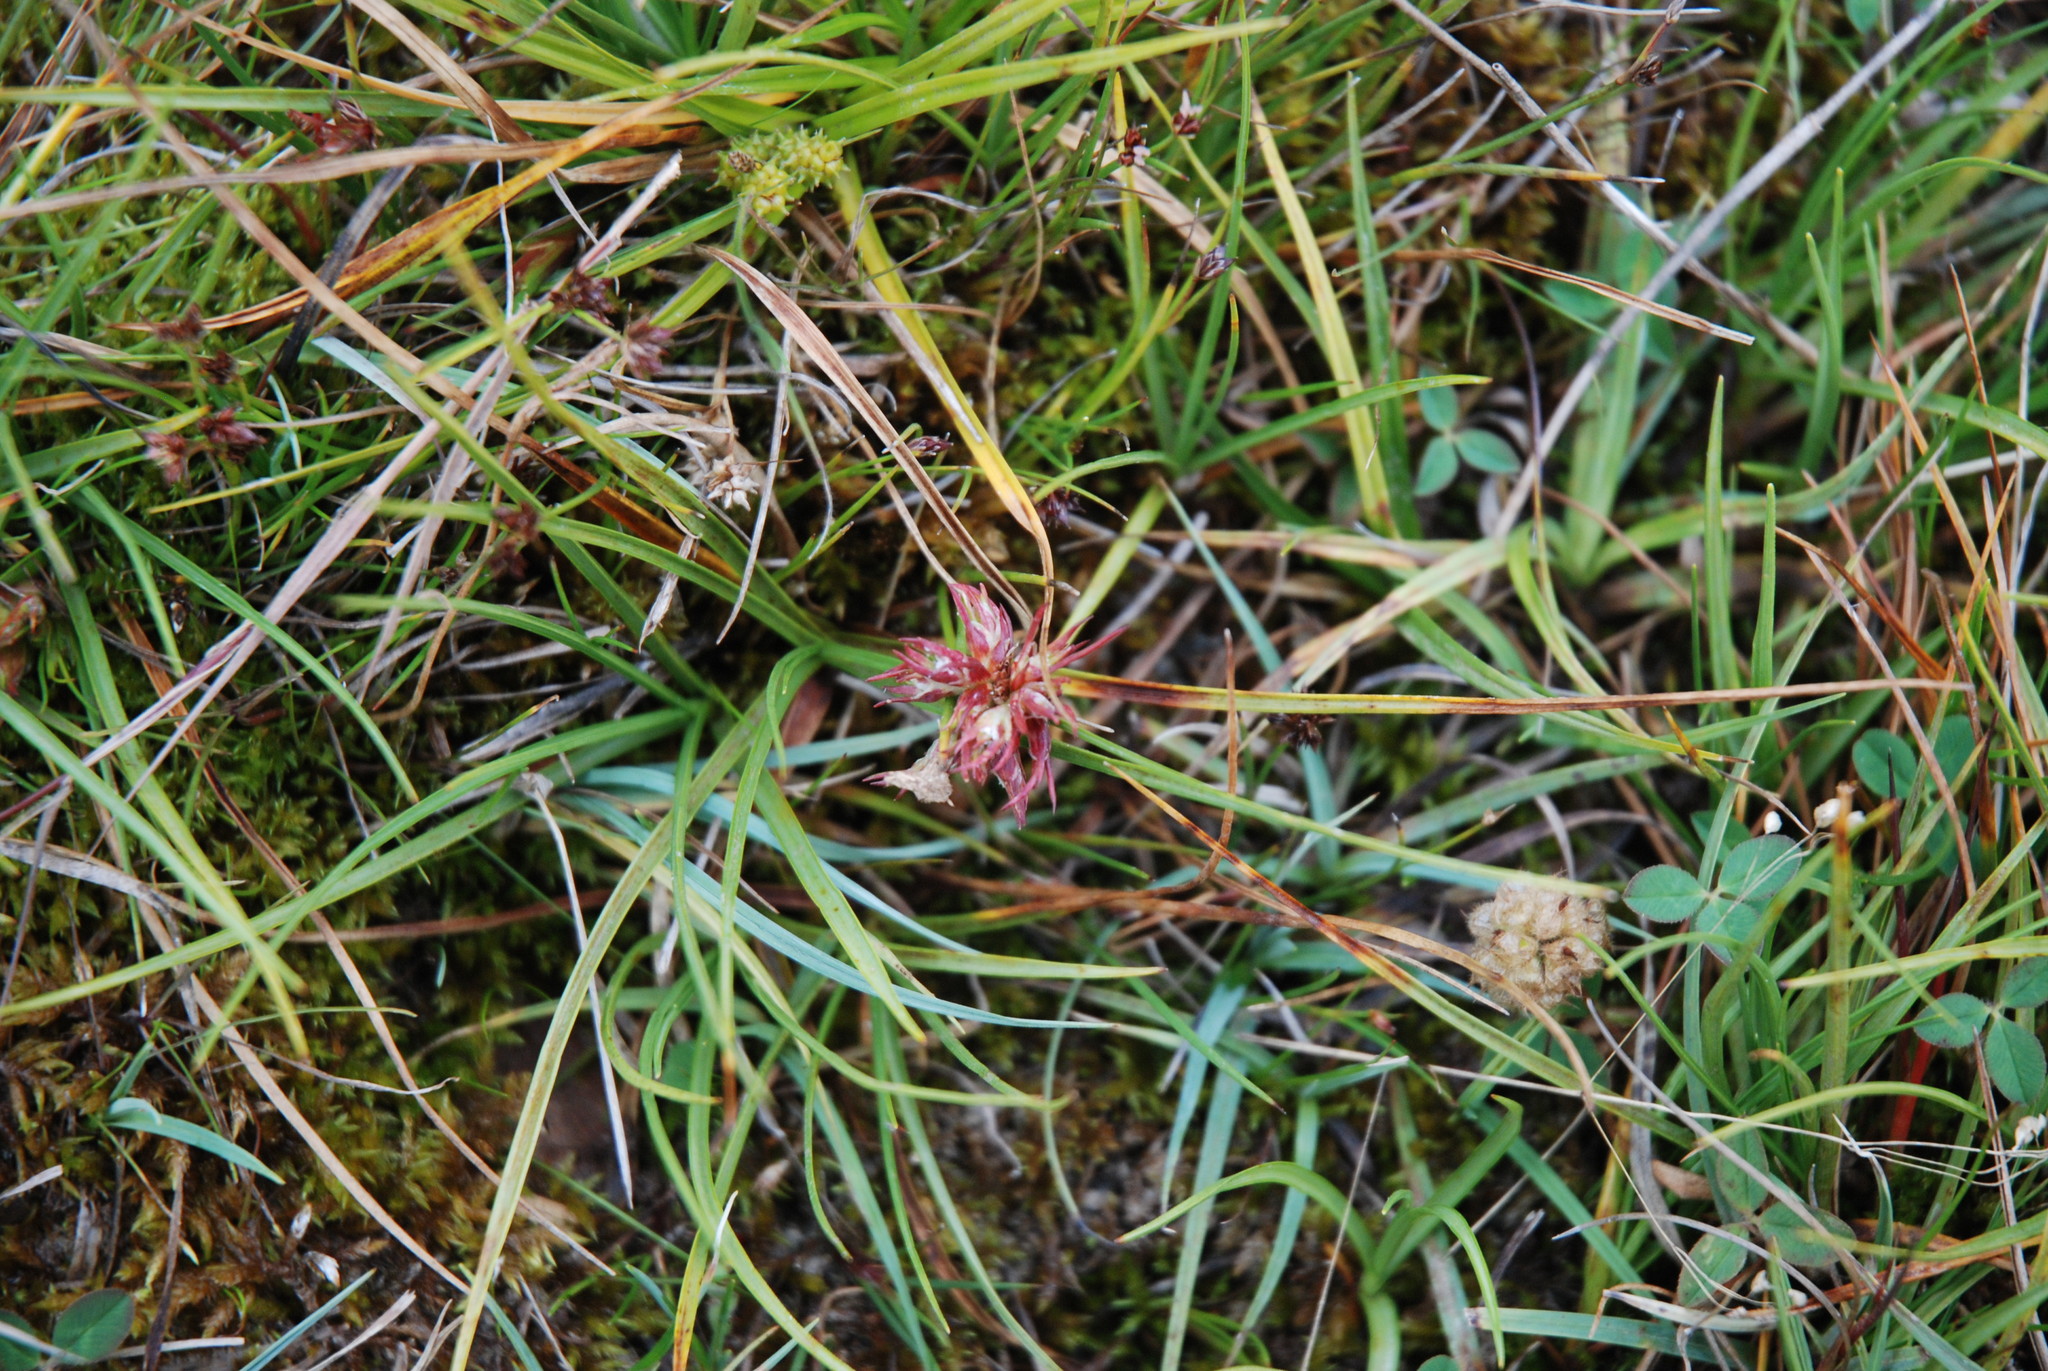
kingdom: Animalia
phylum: Arthropoda
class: Insecta
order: Hemiptera
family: Liviidae
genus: Livia
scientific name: Livia junci
